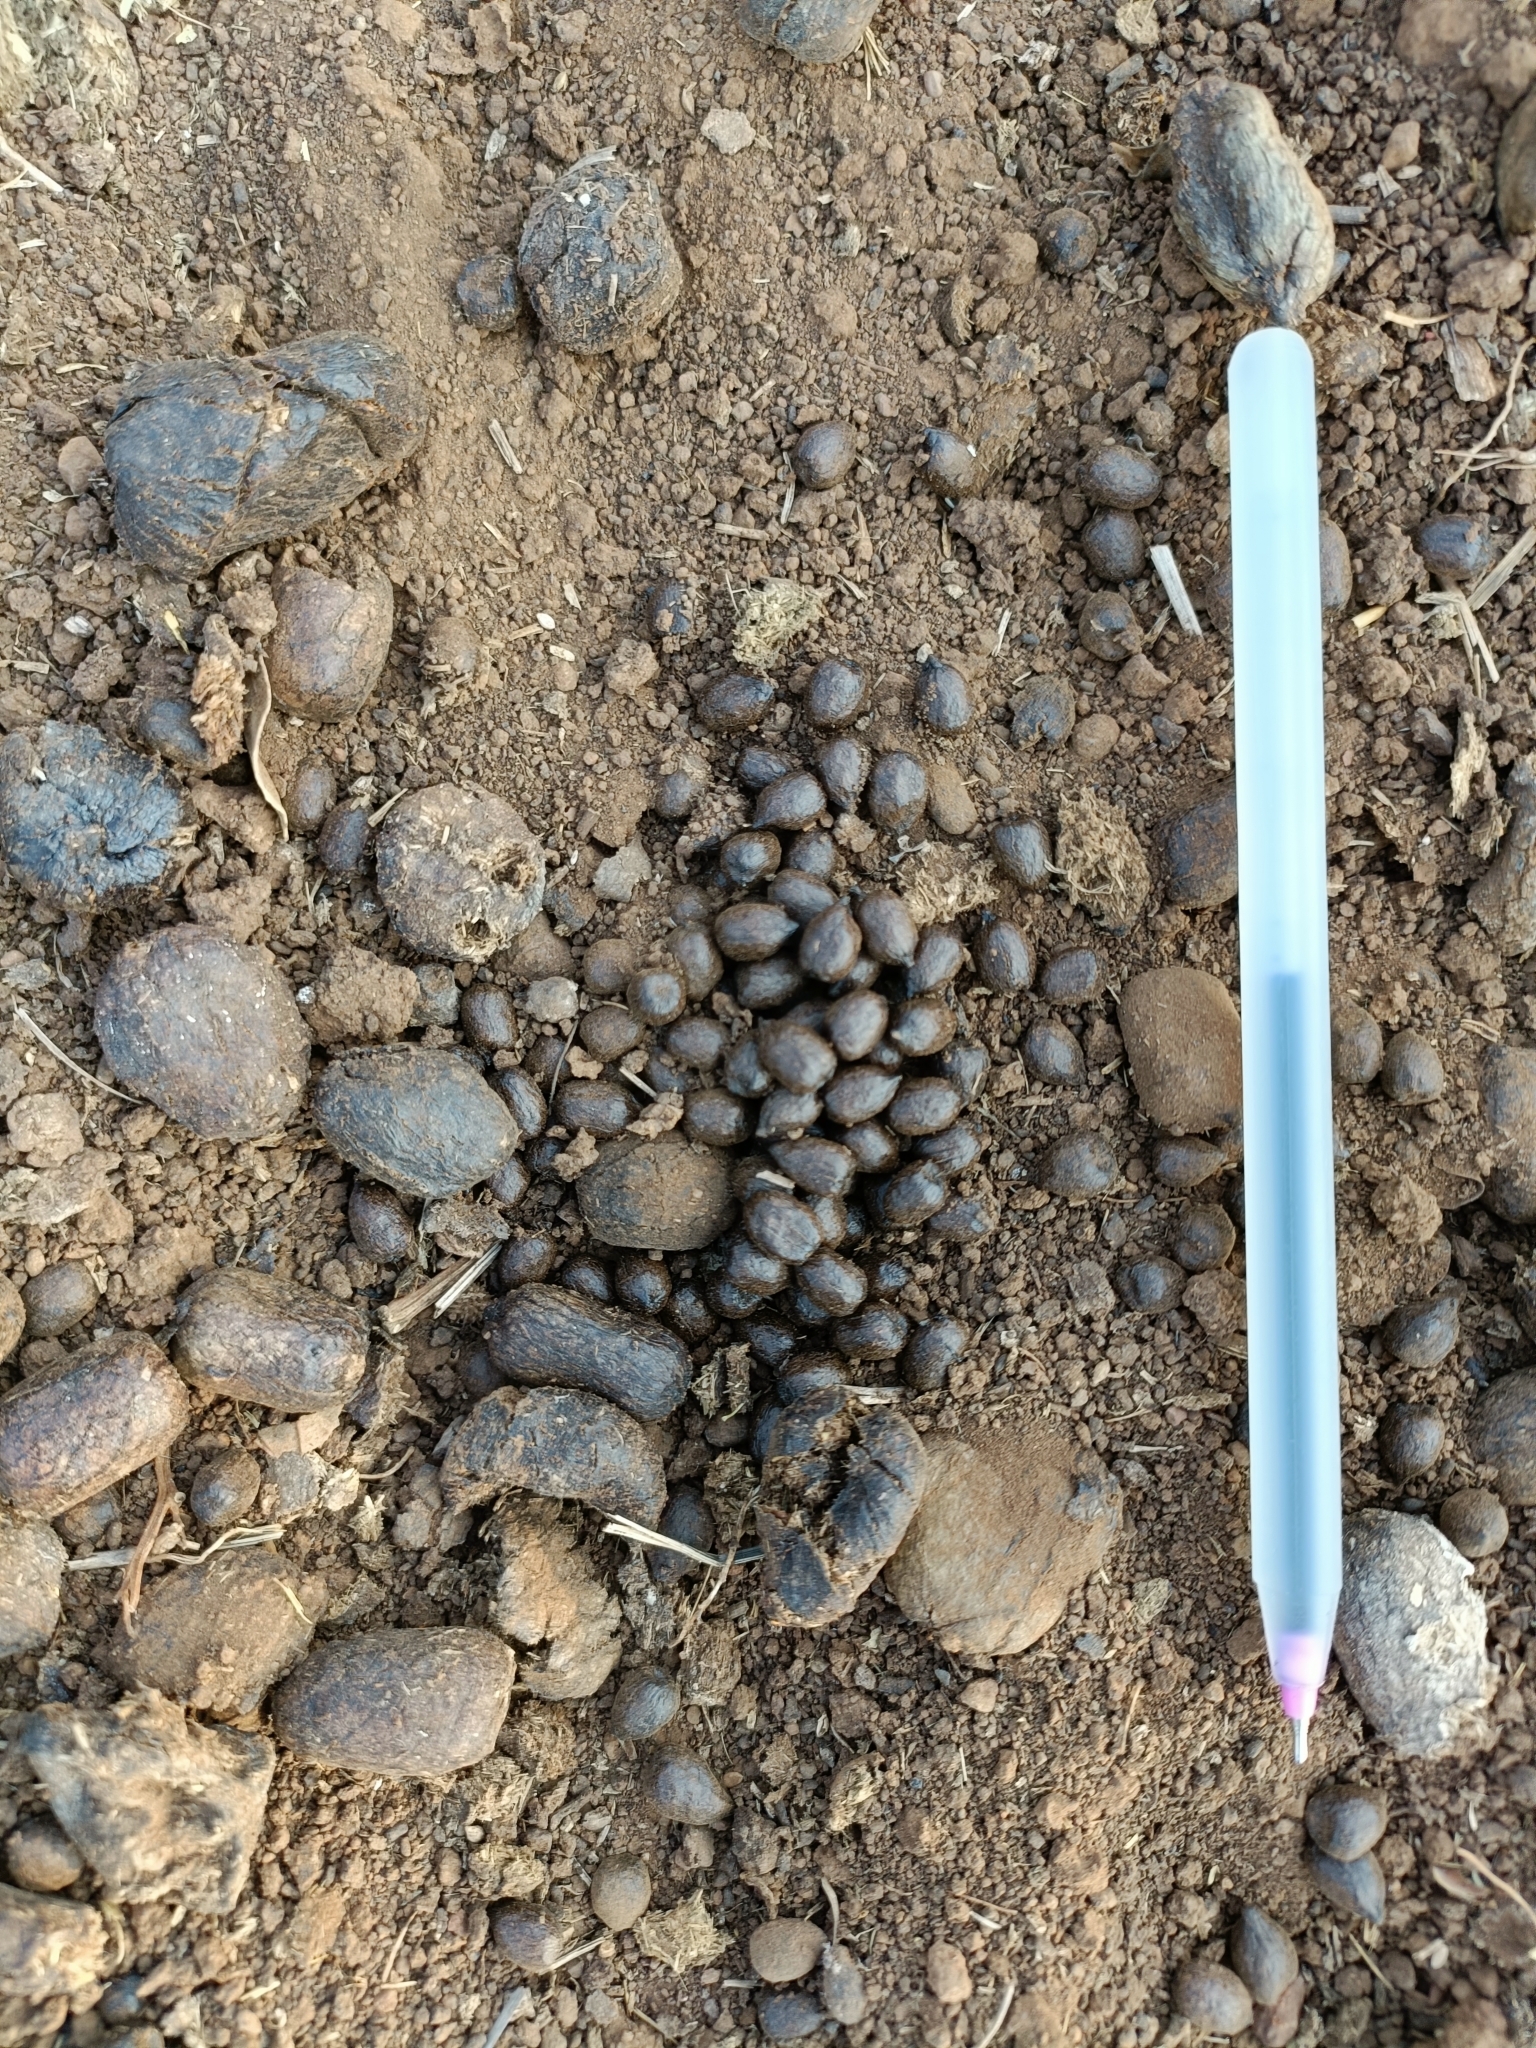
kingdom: Animalia
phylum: Chordata
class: Mammalia
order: Artiodactyla
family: Bovidae
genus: Gazella
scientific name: Gazella bennettii
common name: Indian gazelle
